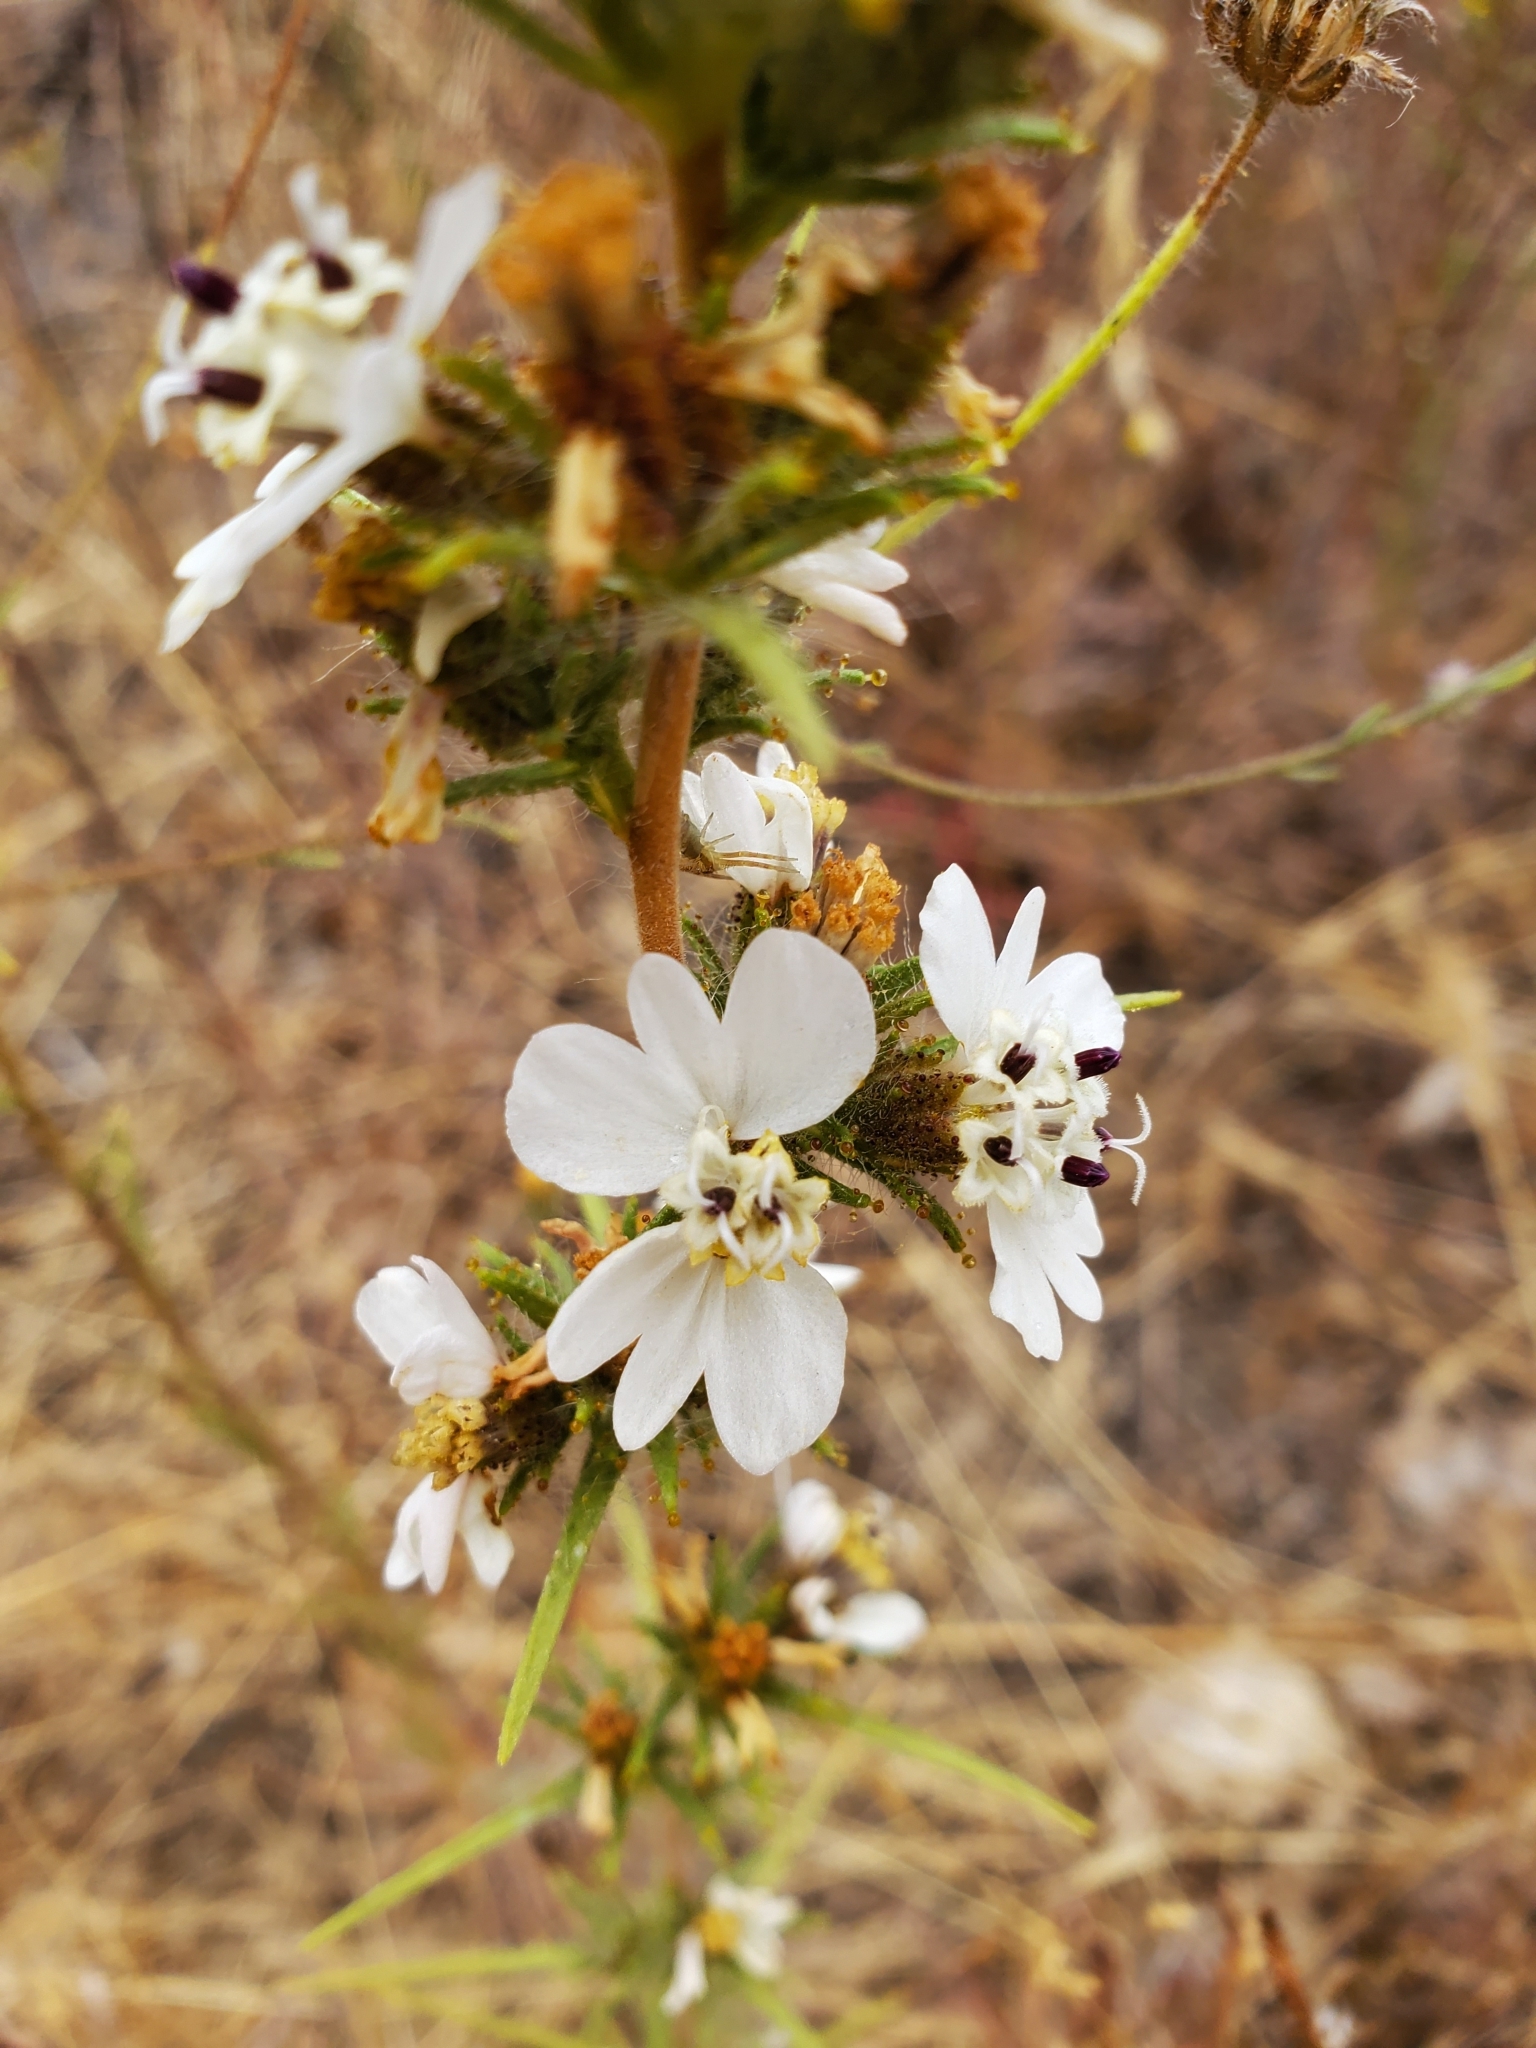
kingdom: Plantae
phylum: Tracheophyta
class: Magnoliopsida
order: Asterales
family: Asteraceae
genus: Calycadenia
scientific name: Calycadenia multiglandulosa
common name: Sticky calycadenia
